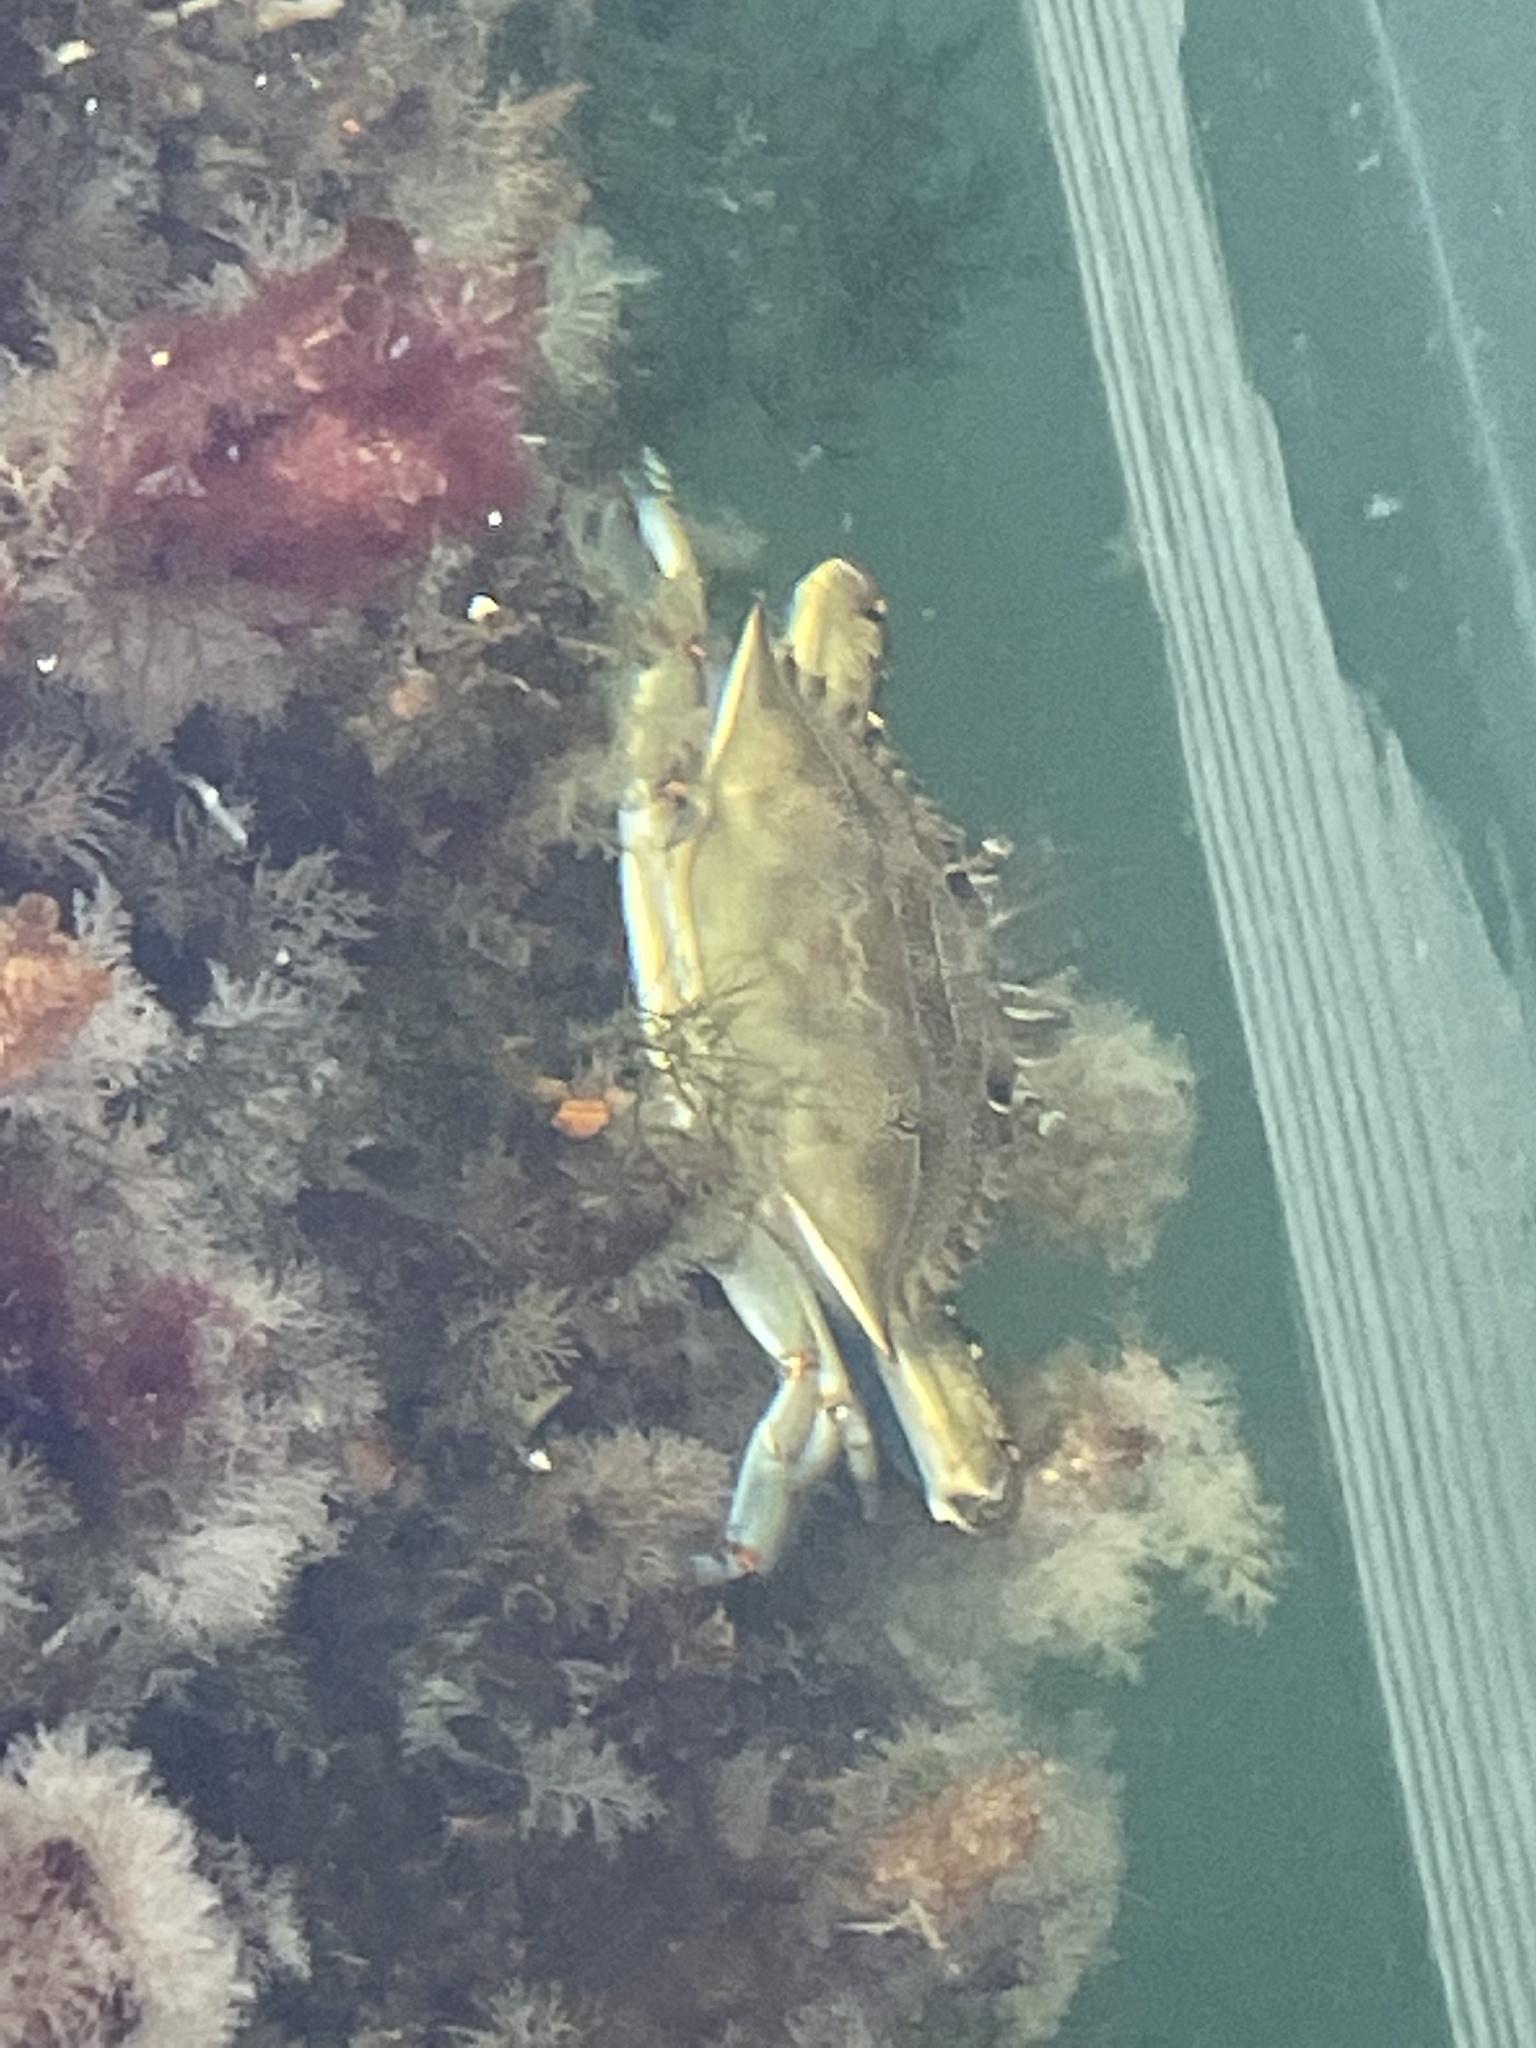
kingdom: Animalia
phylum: Arthropoda
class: Malacostraca
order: Decapoda
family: Portunidae
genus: Callinectes
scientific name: Callinectes sapidus
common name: Blue crab
